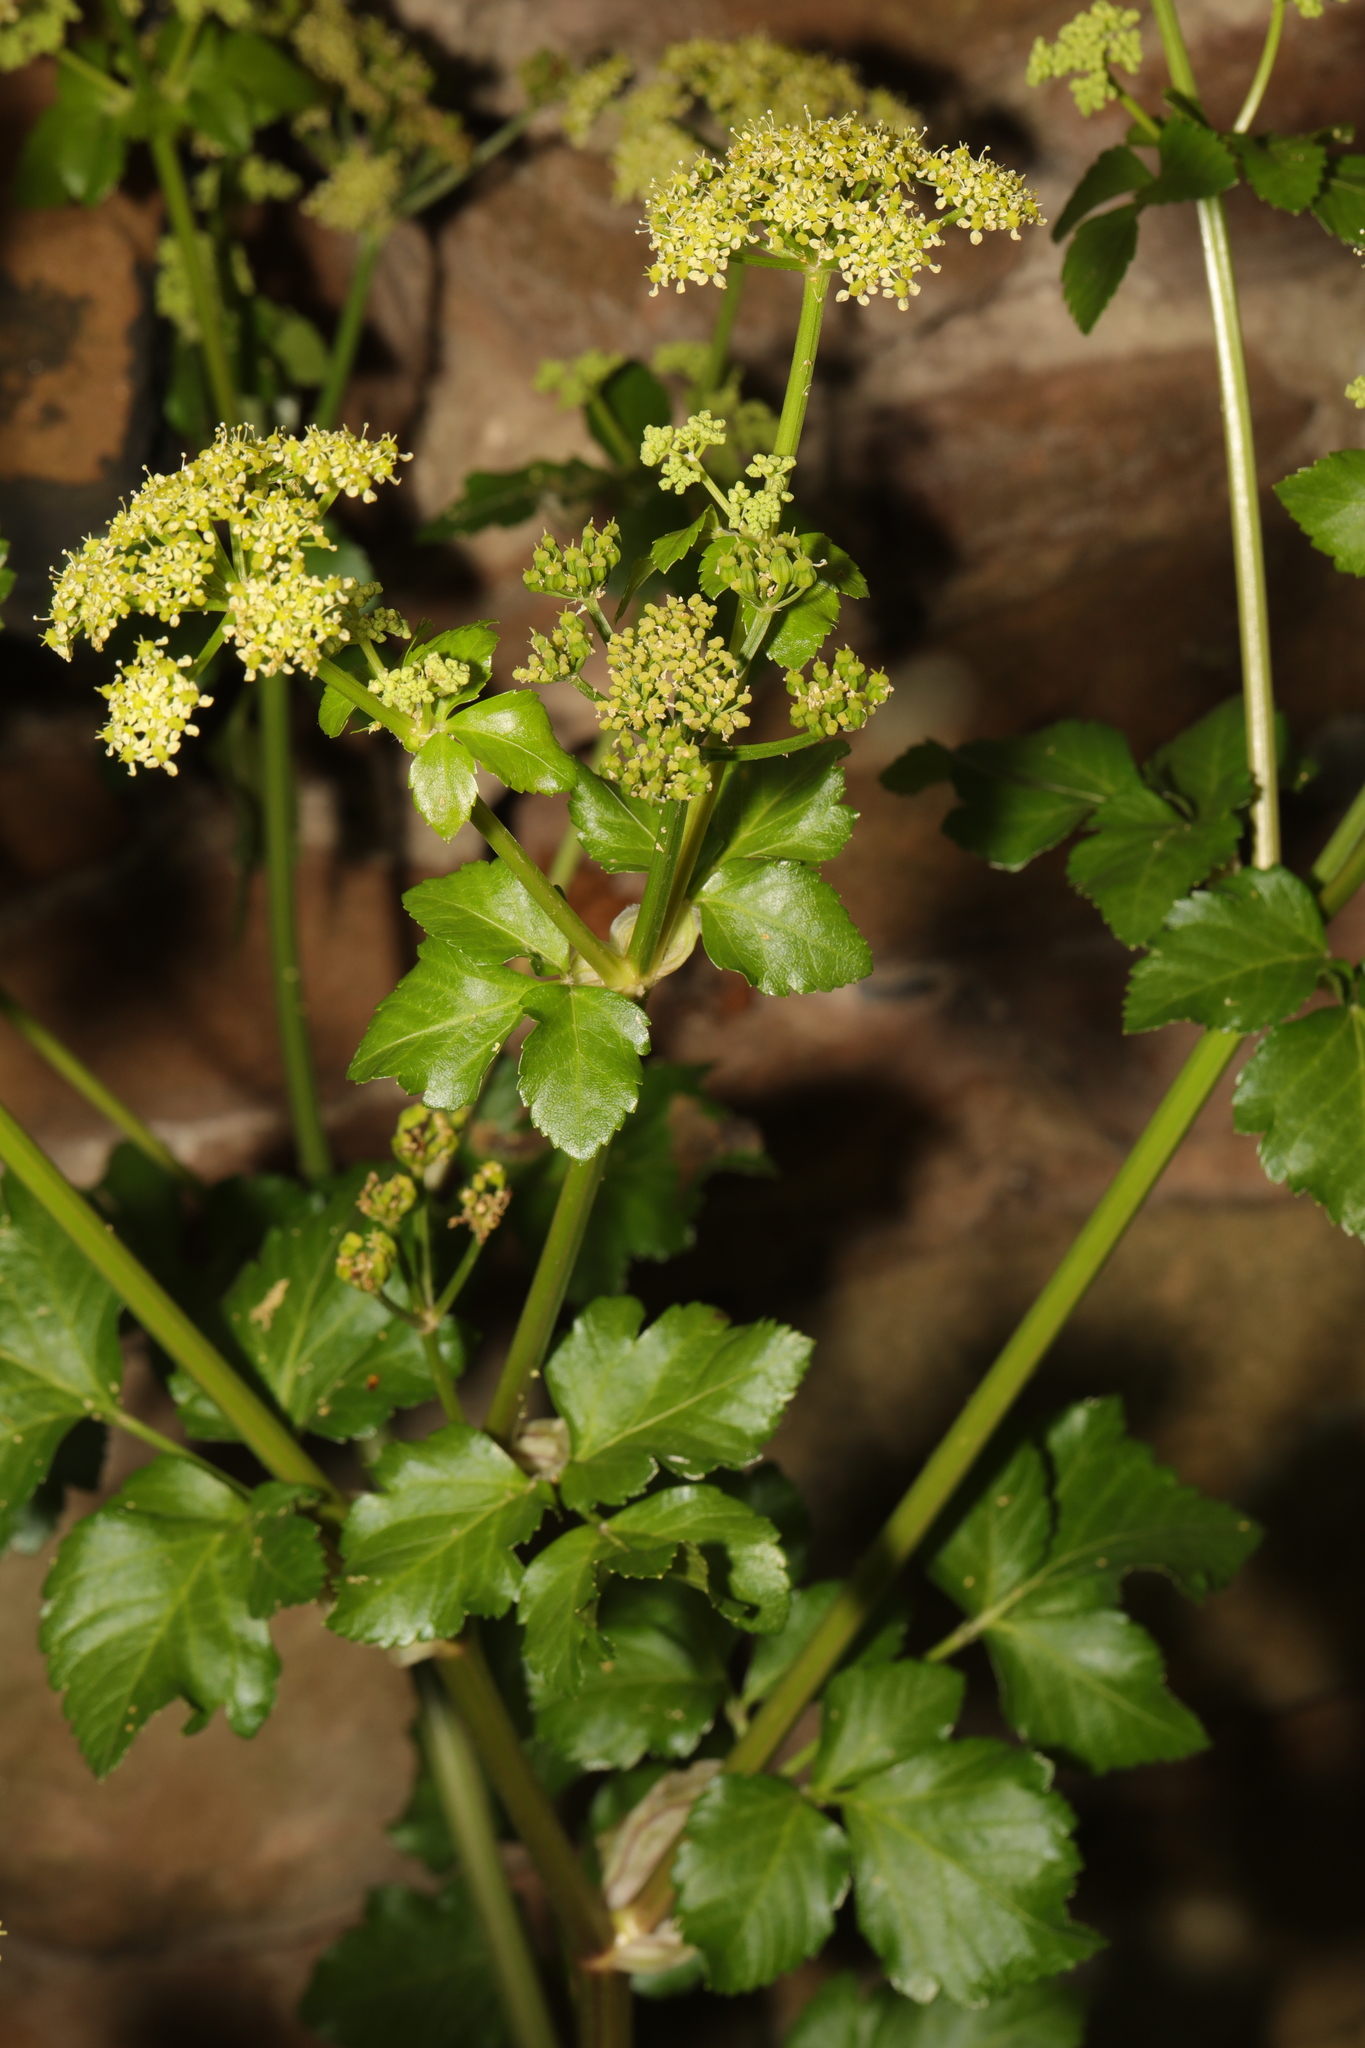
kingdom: Plantae
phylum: Tracheophyta
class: Magnoliopsida
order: Apiales
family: Apiaceae
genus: Smyrnium
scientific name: Smyrnium olusatrum
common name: Alexanders
